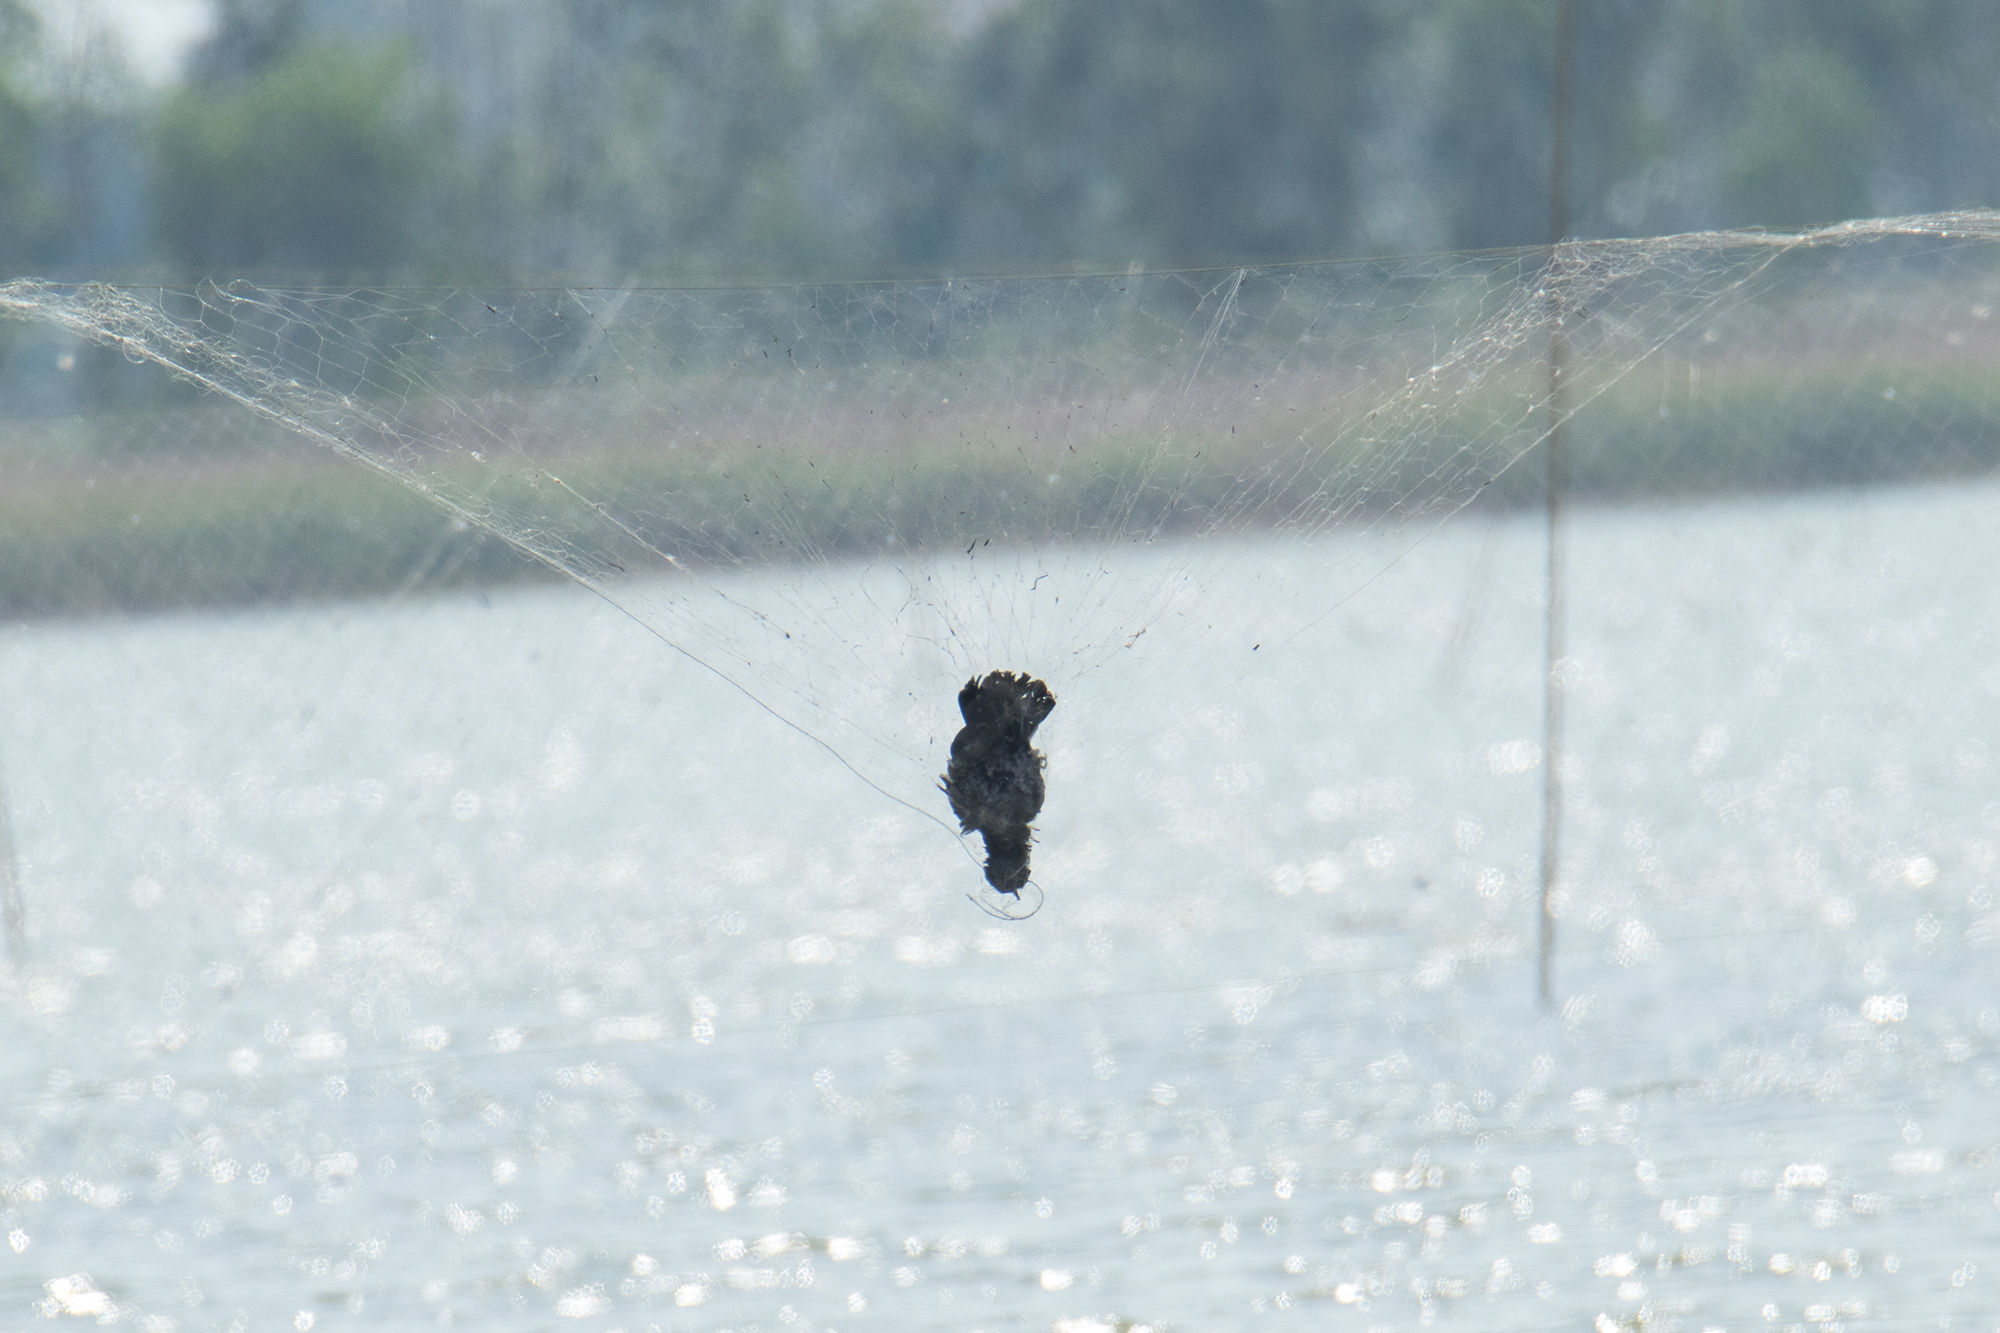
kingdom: Animalia
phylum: Chordata
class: Aves
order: Columbiformes
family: Columbidae
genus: Columba
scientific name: Columba livia
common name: Rock pigeon
